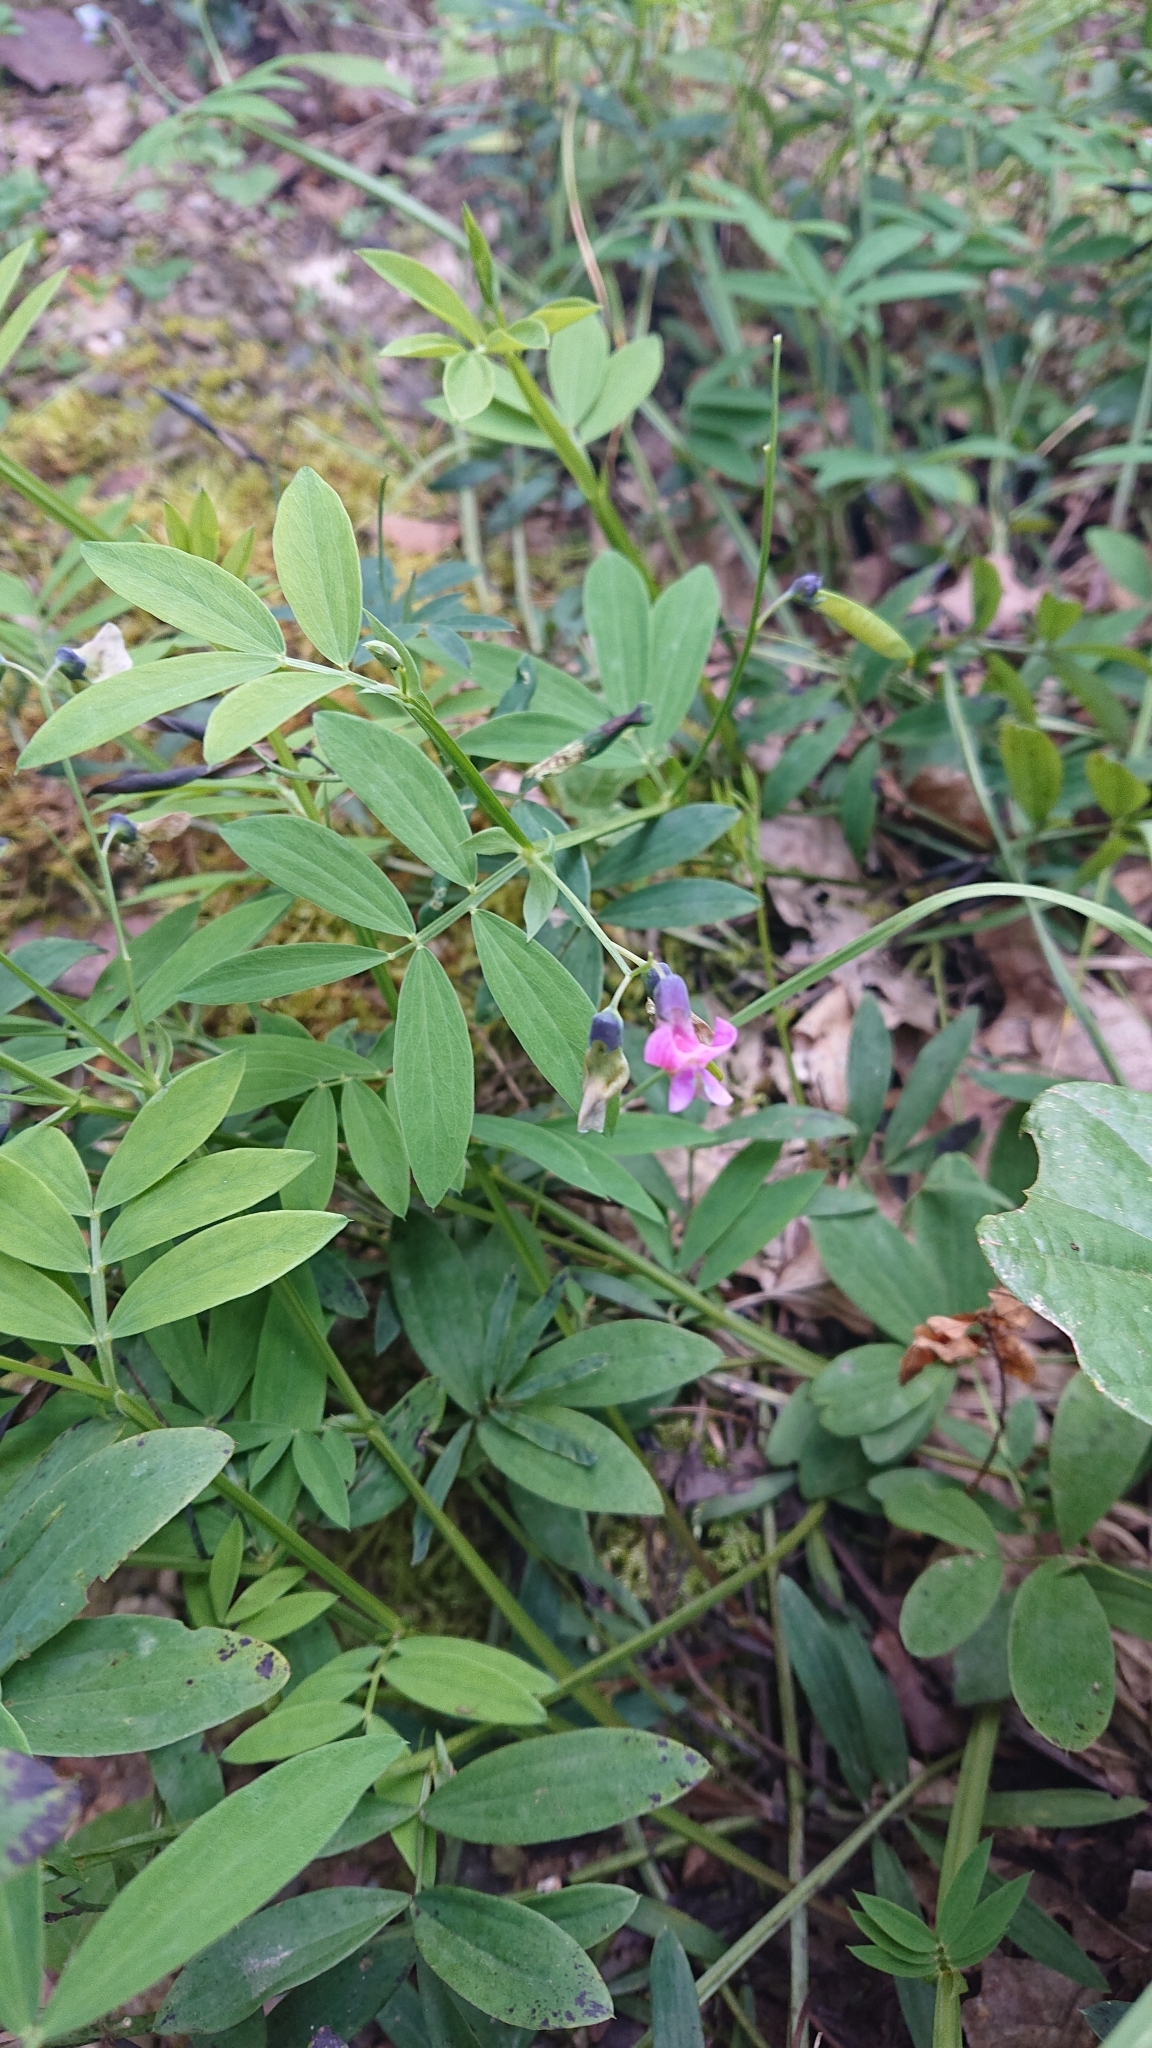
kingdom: Plantae
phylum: Tracheophyta
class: Magnoliopsida
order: Fabales
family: Fabaceae
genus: Lathyrus
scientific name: Lathyrus linifolius
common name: Bitter-vetch
